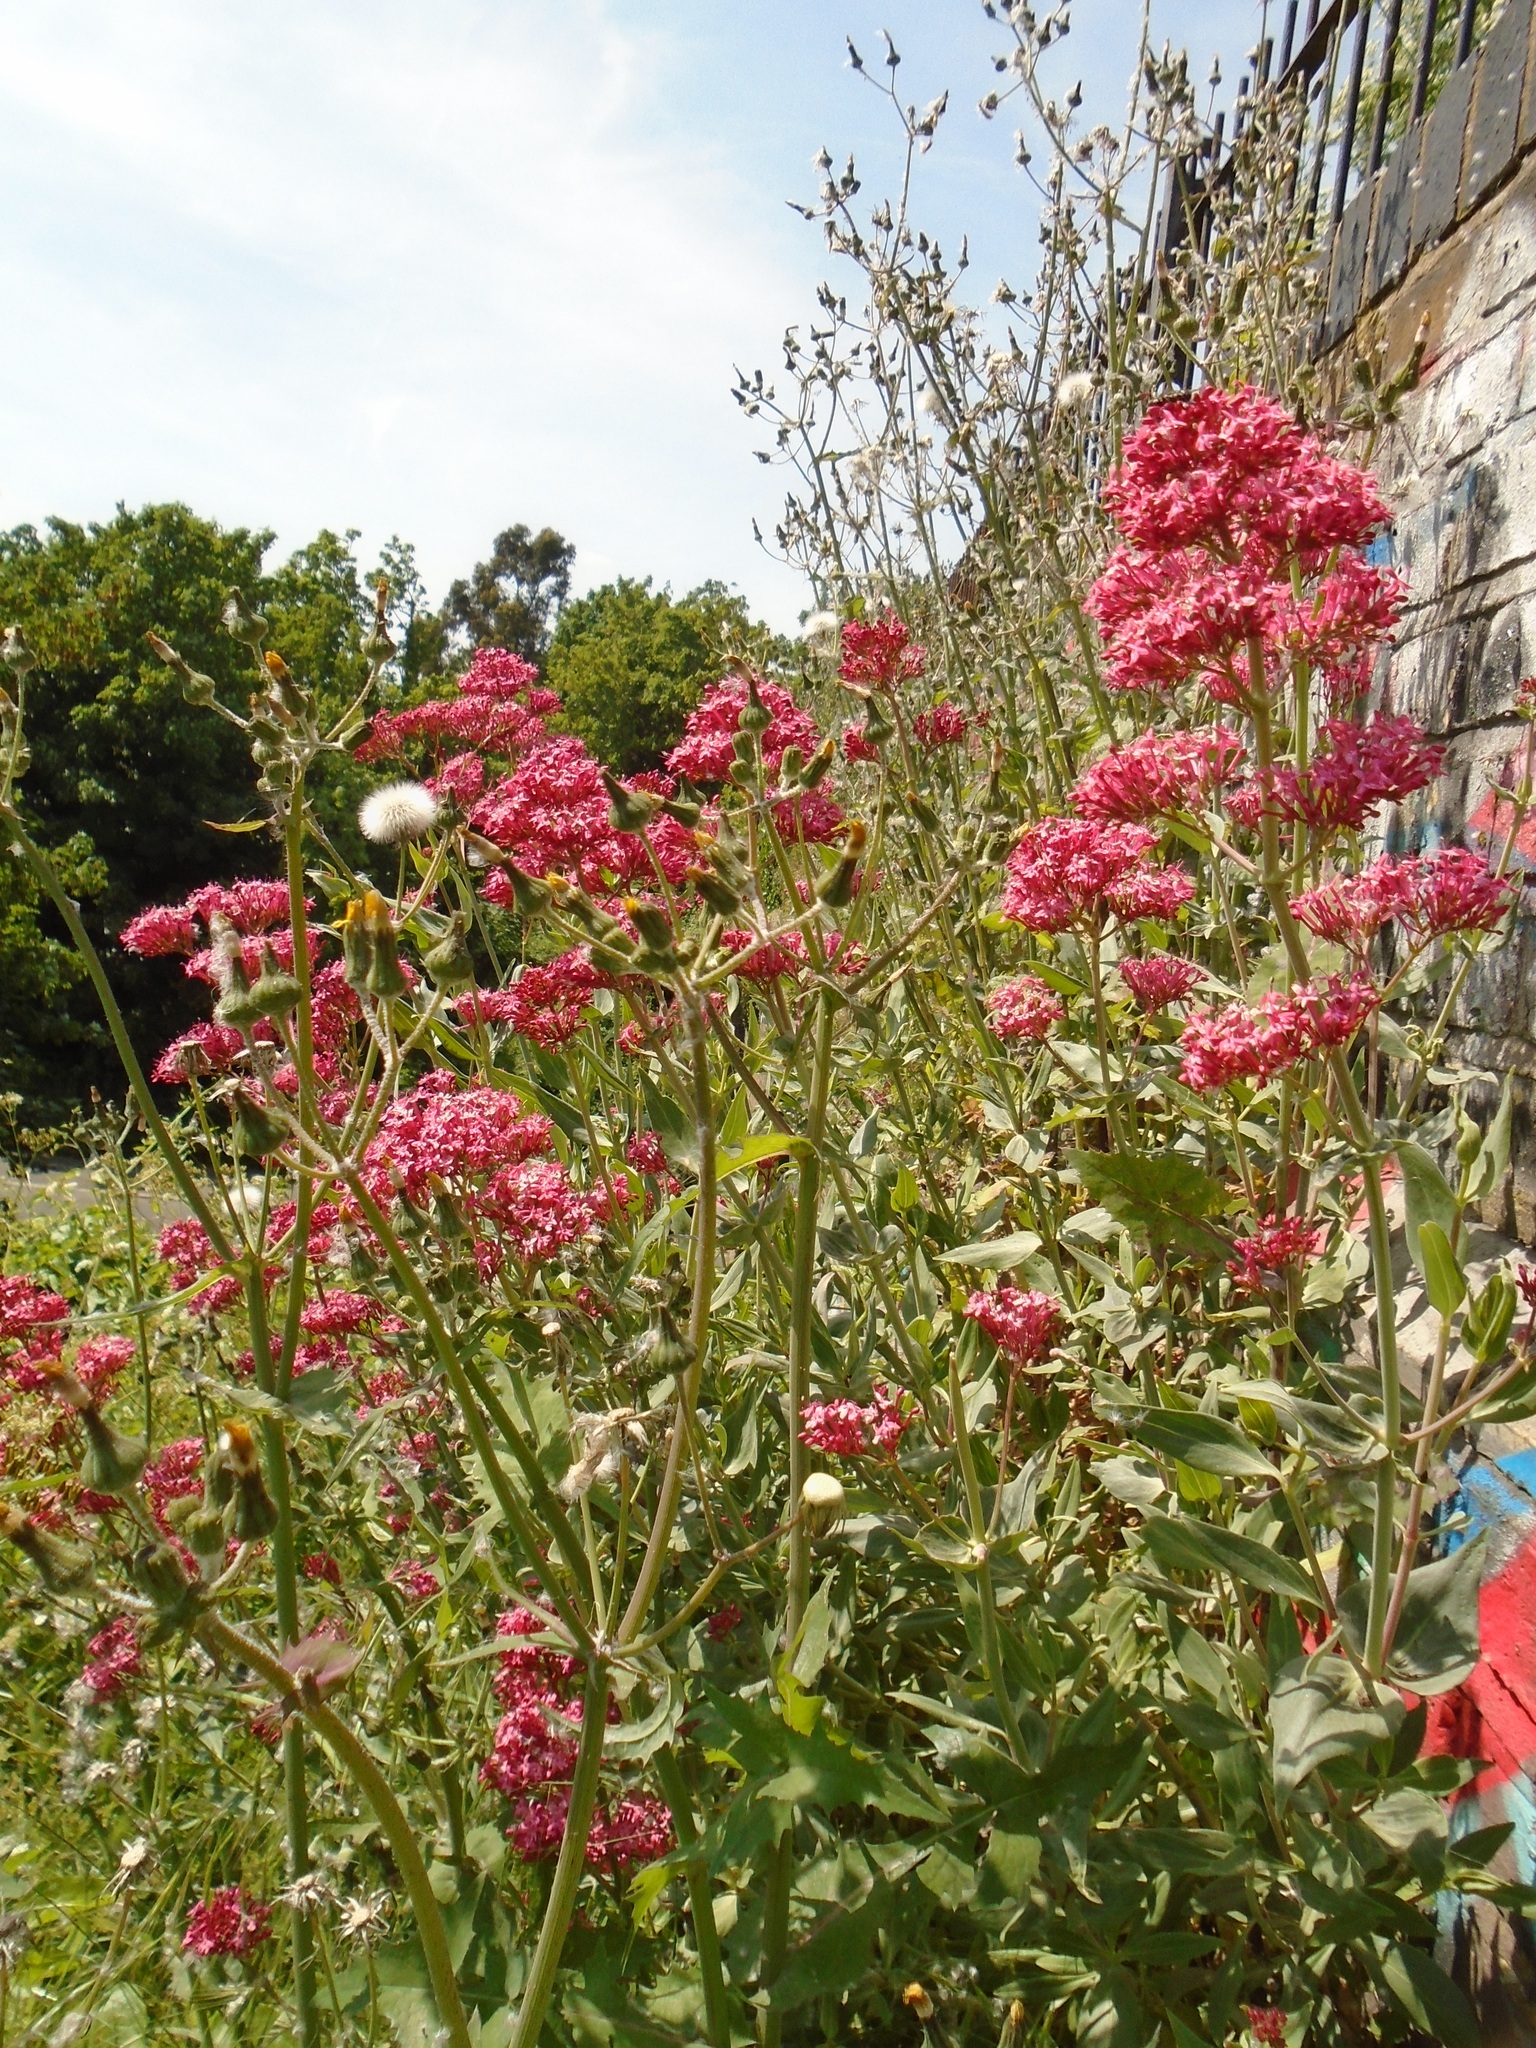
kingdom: Plantae
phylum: Tracheophyta
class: Magnoliopsida
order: Dipsacales
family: Caprifoliaceae
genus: Centranthus
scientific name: Centranthus ruber
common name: Red valerian
